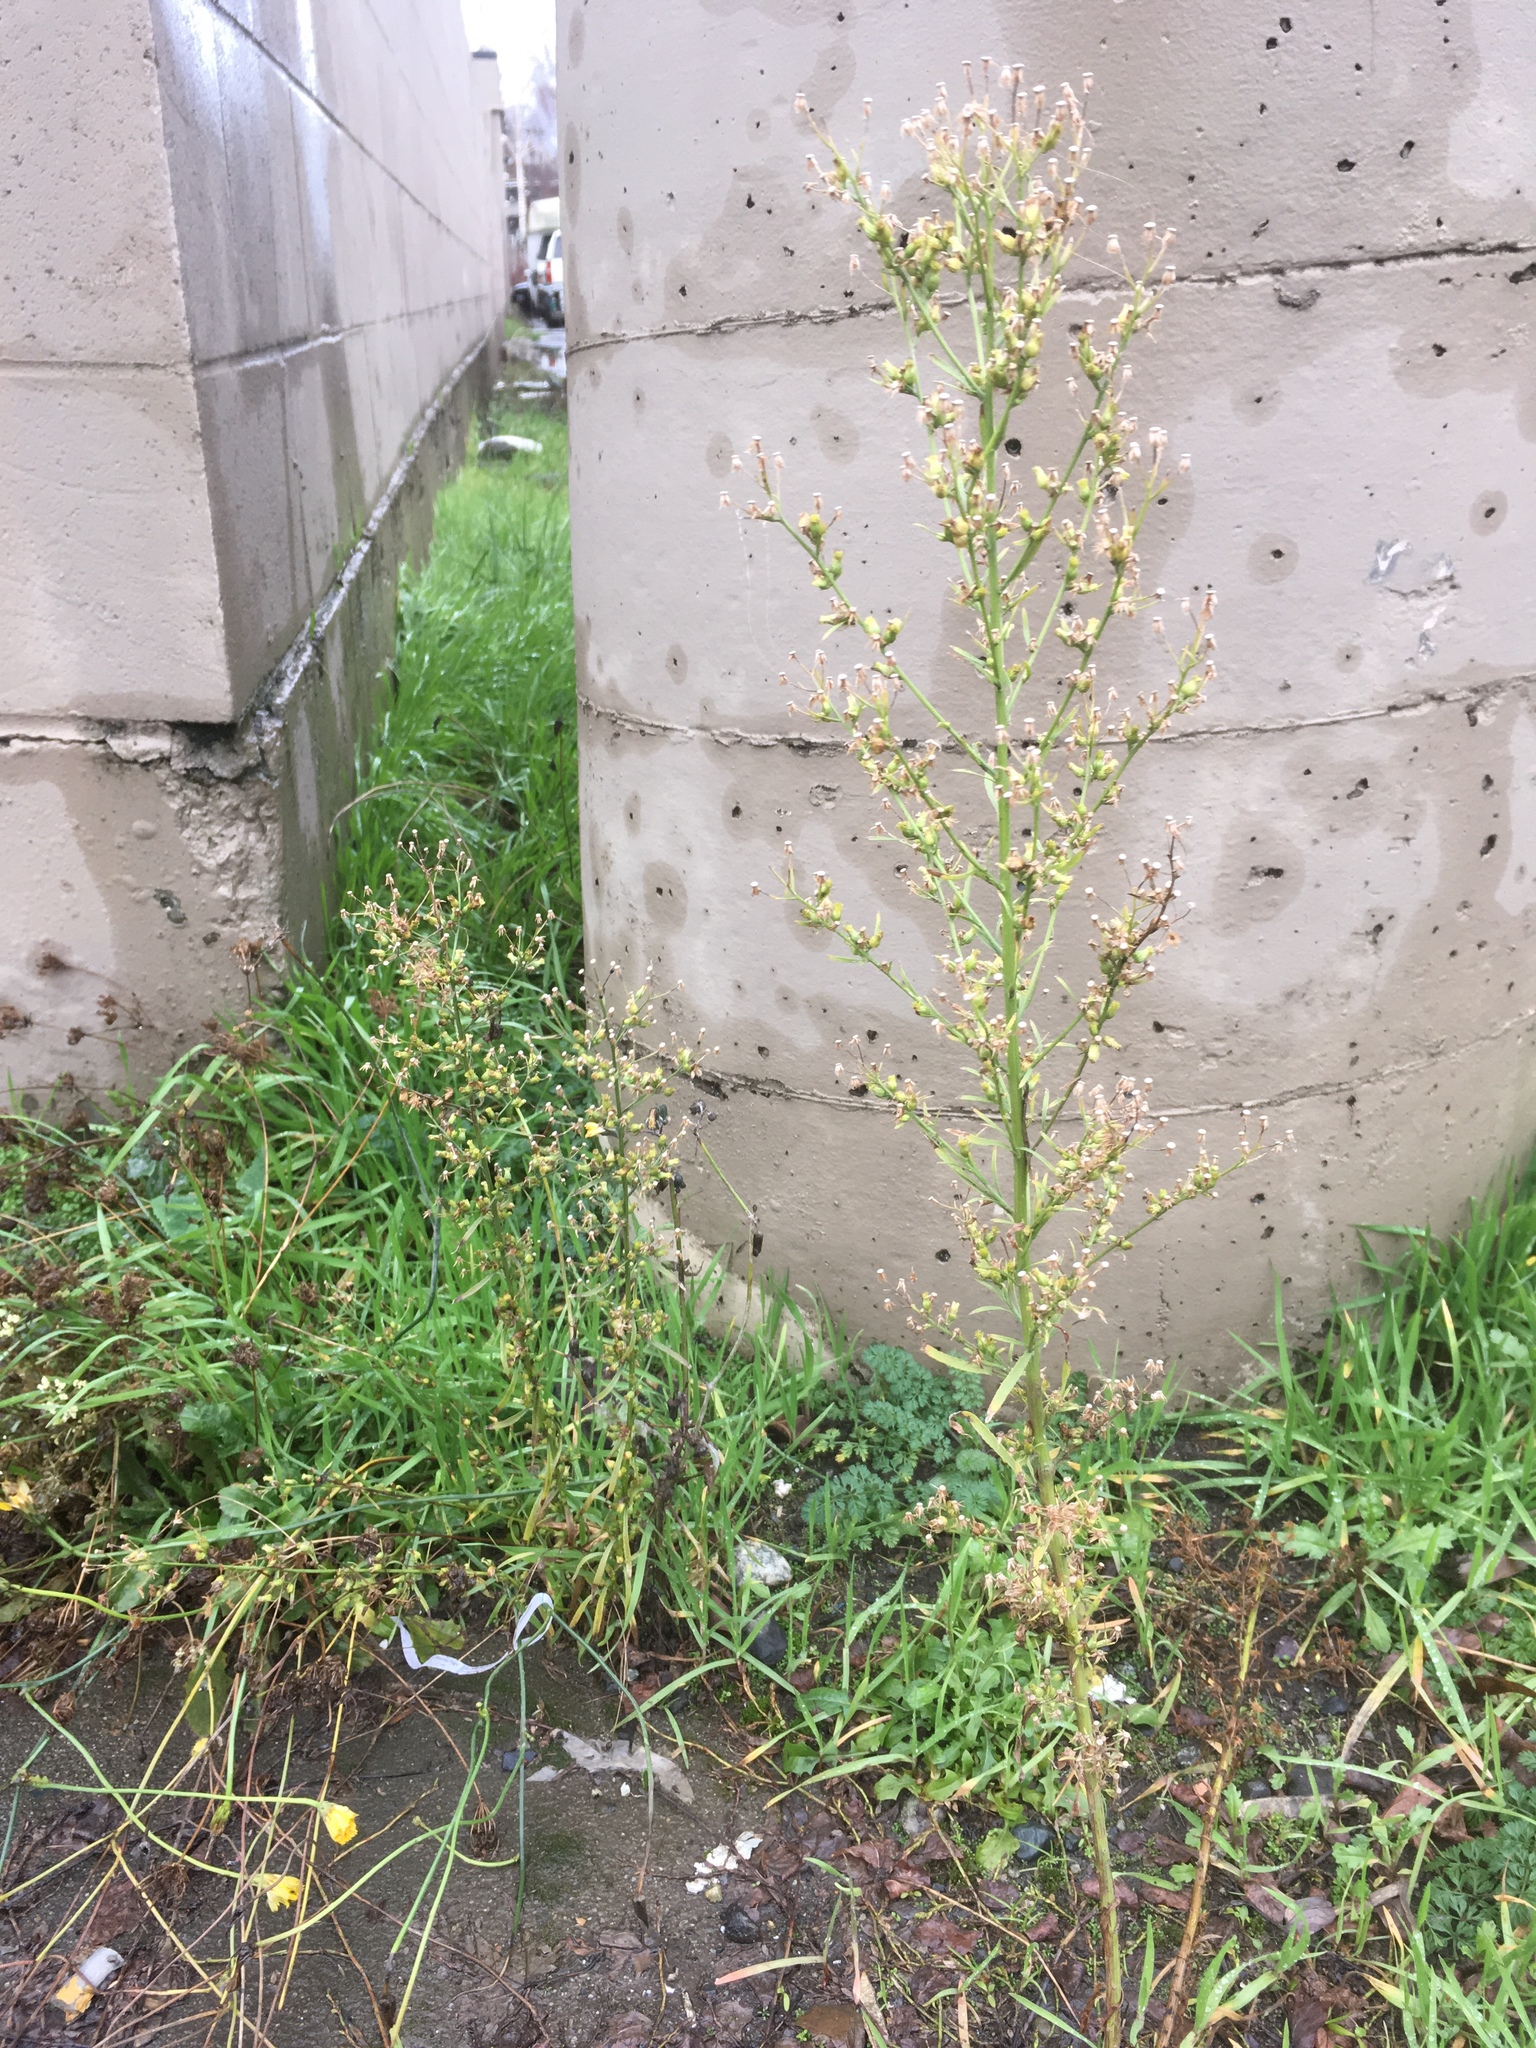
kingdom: Plantae
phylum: Tracheophyta
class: Magnoliopsida
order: Asterales
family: Asteraceae
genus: Erigeron
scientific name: Erigeron canadensis
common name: Canadian fleabane
